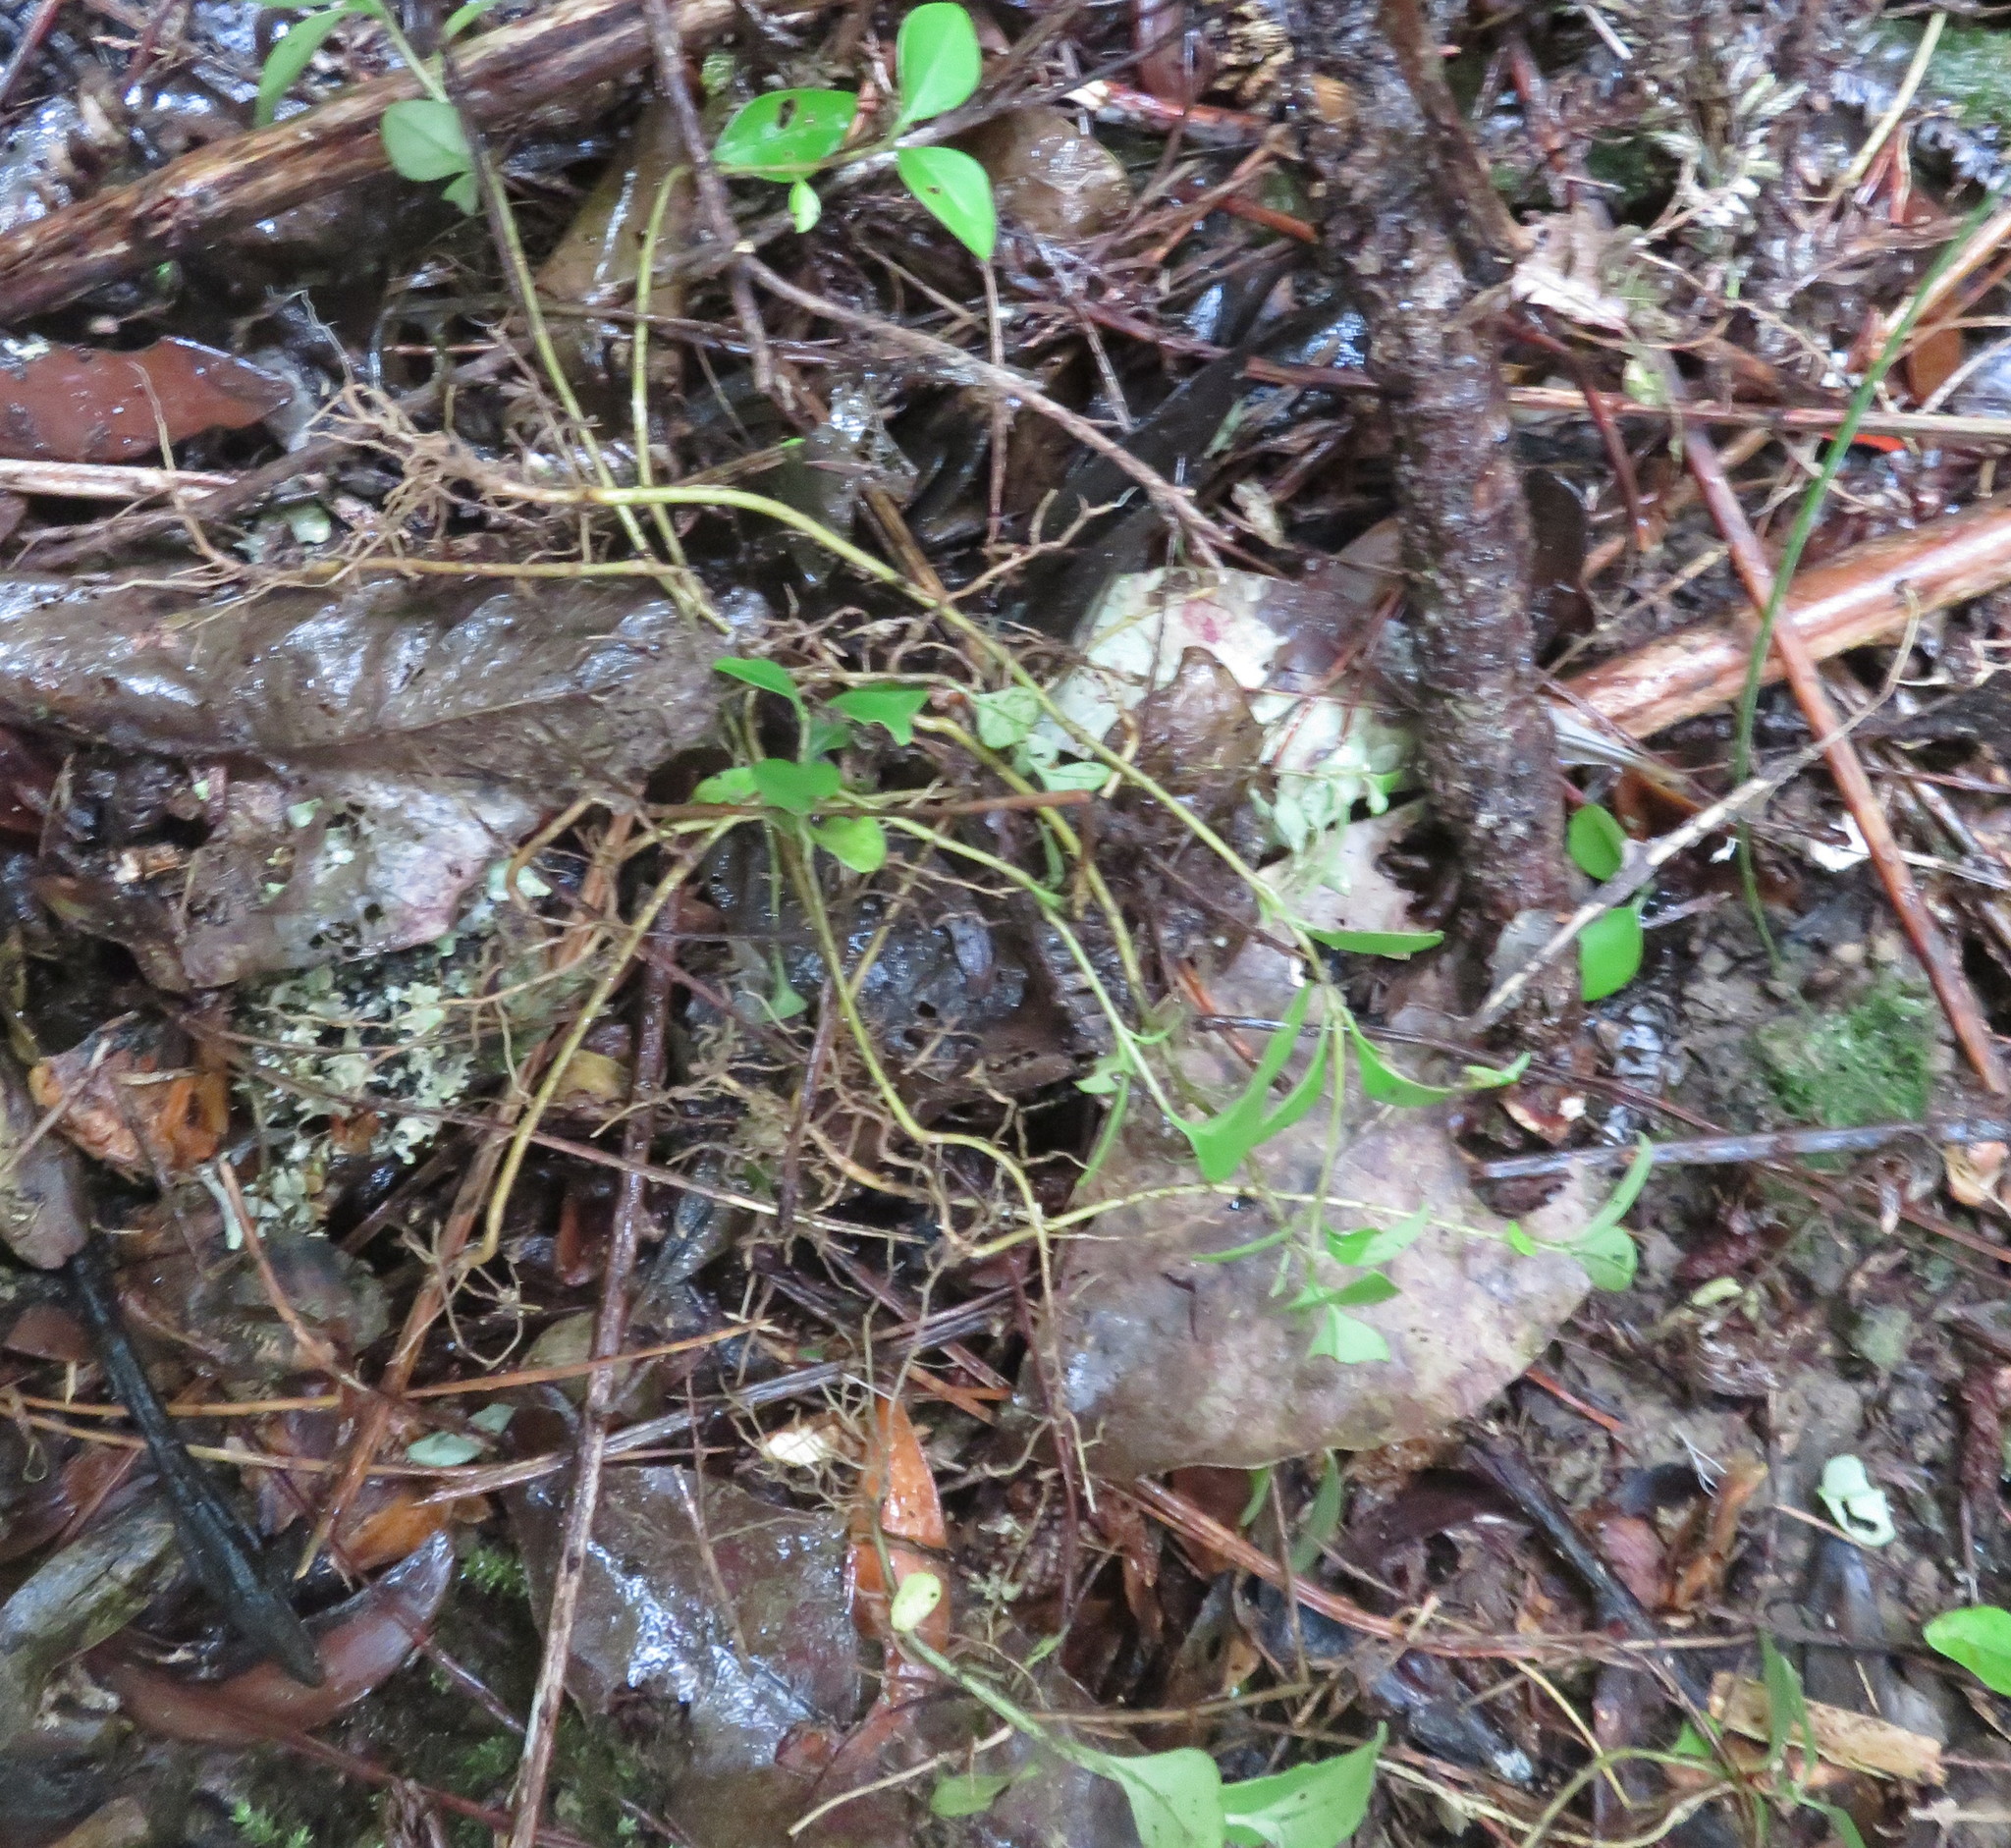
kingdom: Plantae
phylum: Tracheophyta
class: Magnoliopsida
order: Lamiales
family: Oleaceae
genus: Ligustrum
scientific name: Ligustrum lucidum
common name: Glossy privet
